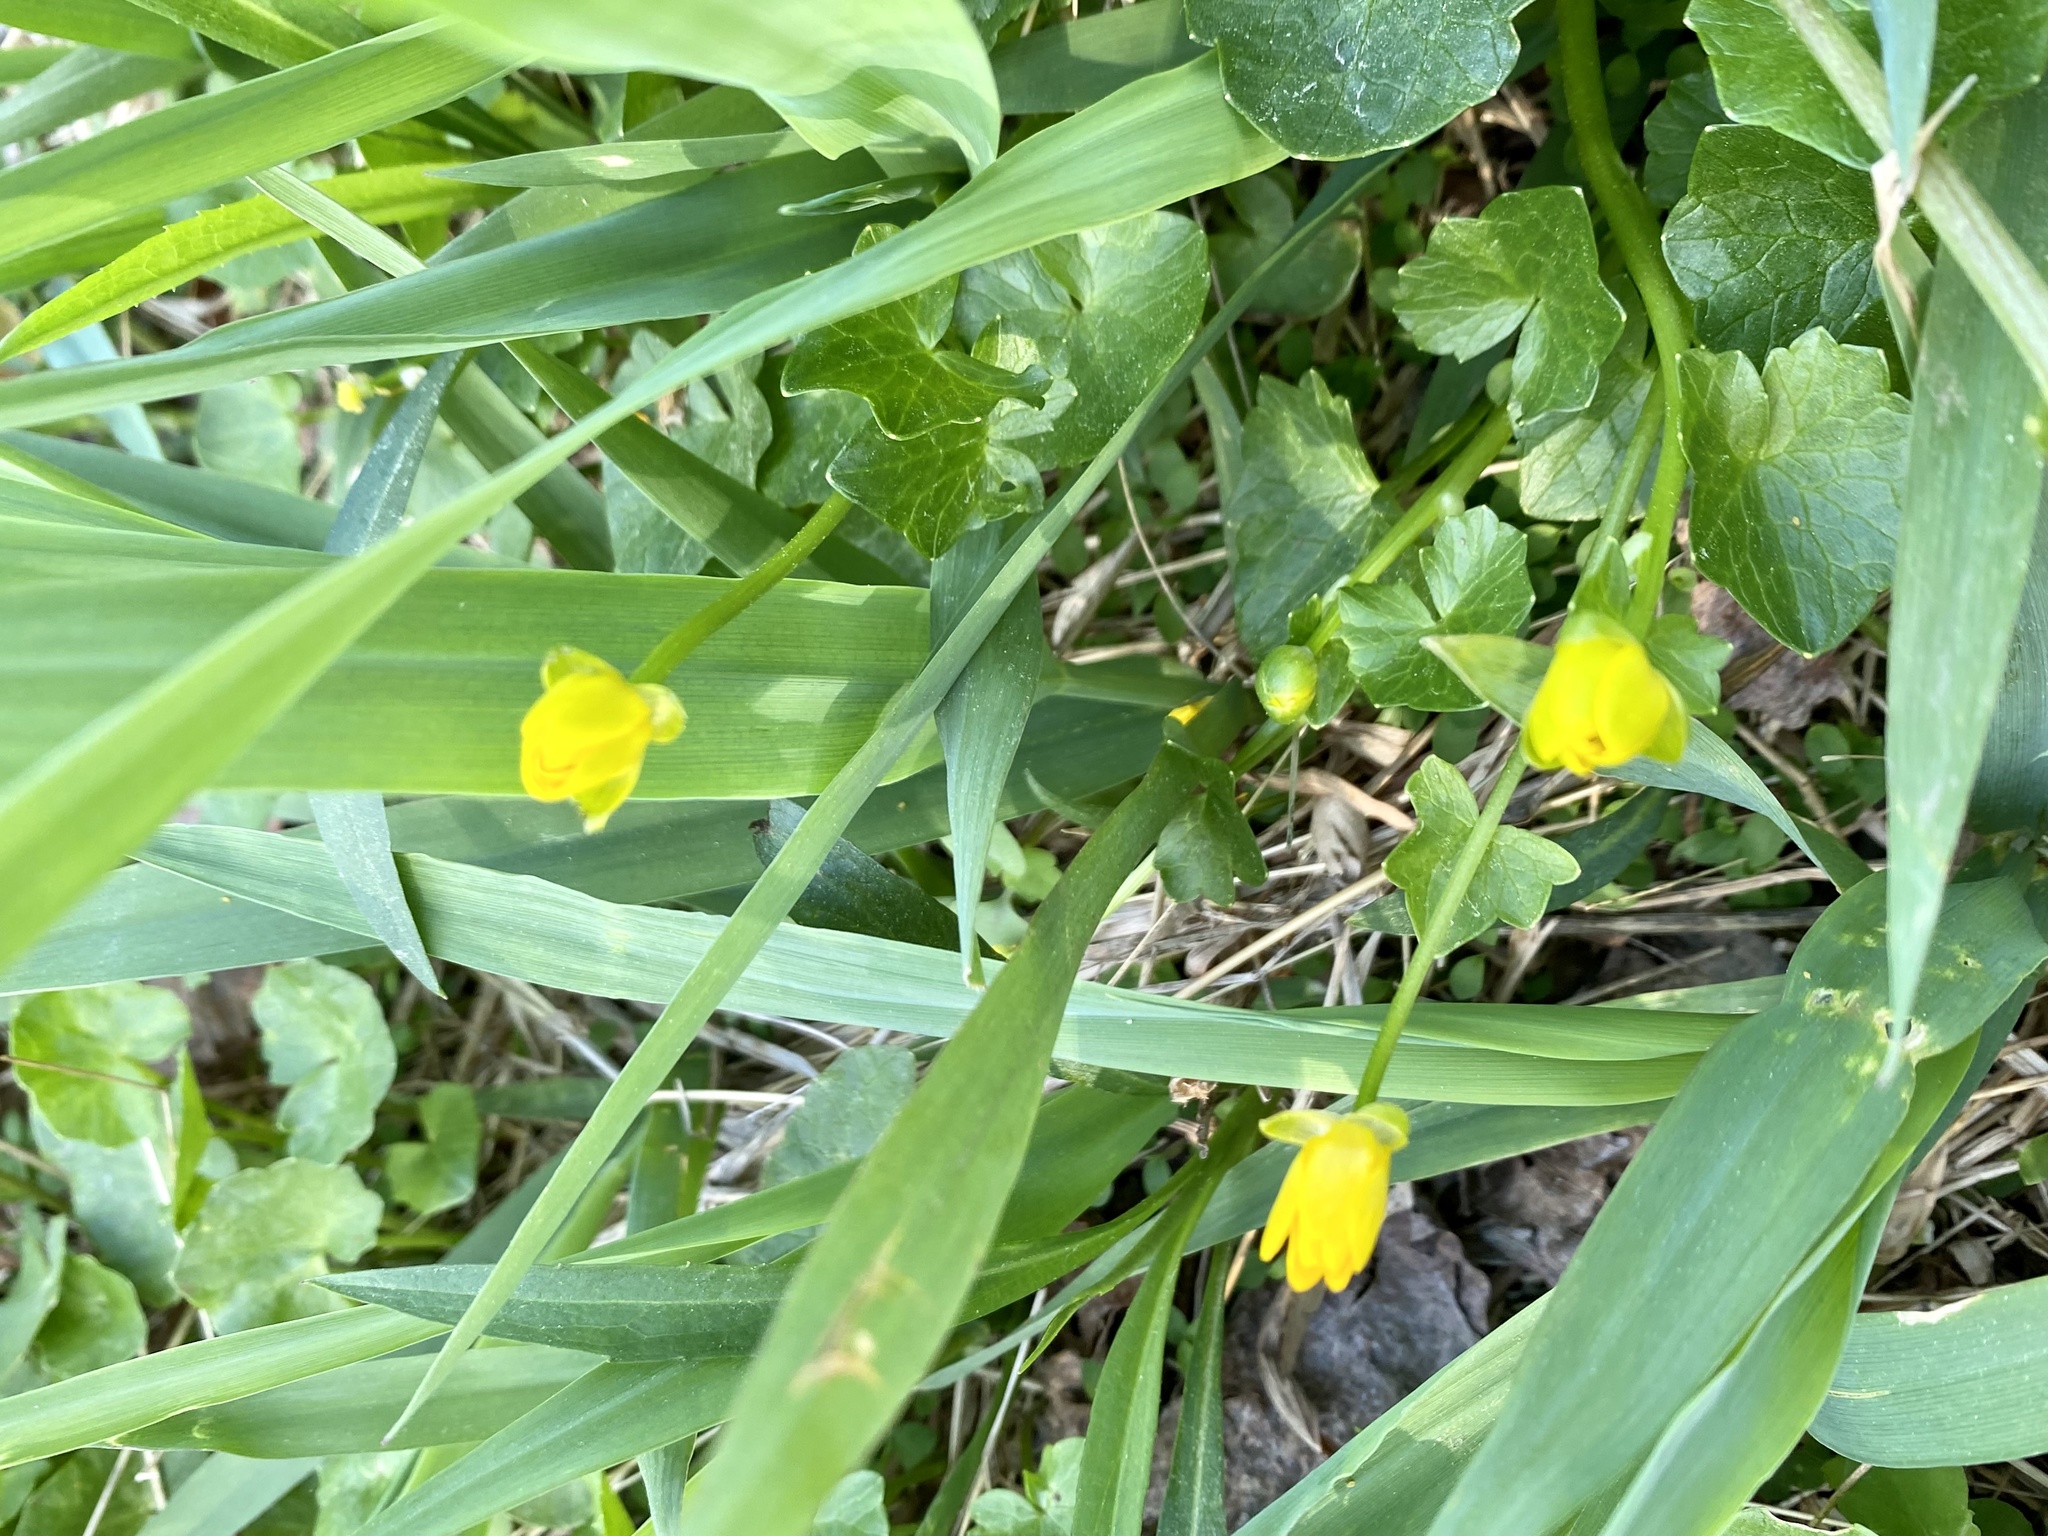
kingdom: Plantae
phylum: Tracheophyta
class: Magnoliopsida
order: Ranunculales
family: Ranunculaceae
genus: Ficaria
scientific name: Ficaria verna
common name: Lesser celandine
